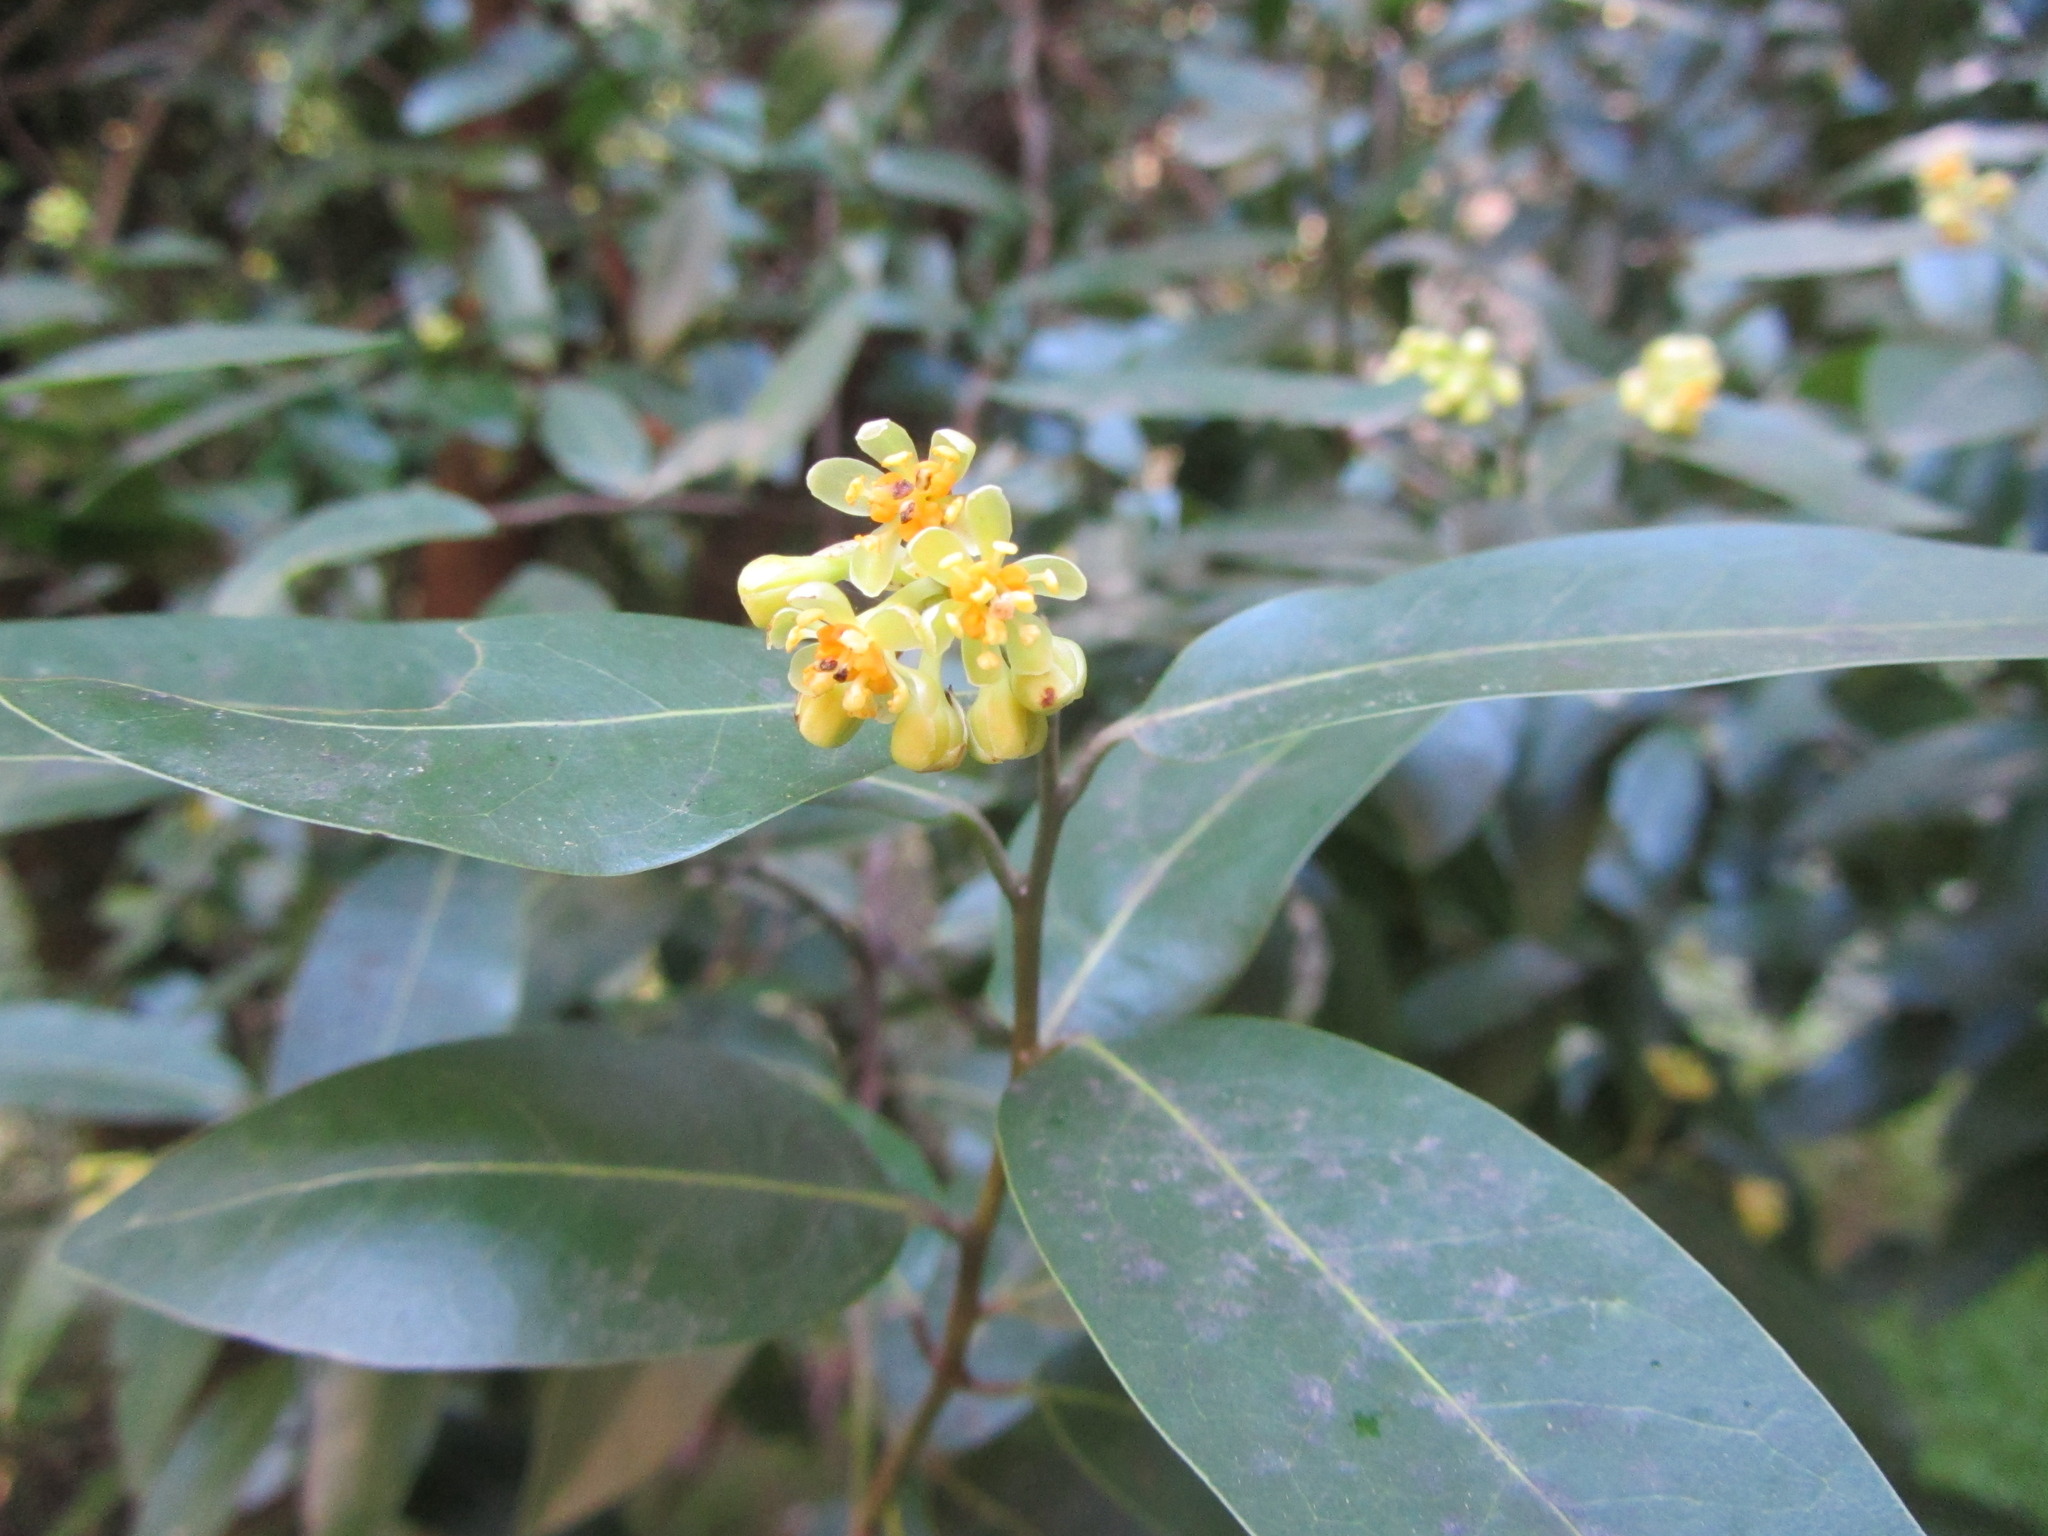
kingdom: Plantae
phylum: Tracheophyta
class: Magnoliopsida
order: Laurales
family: Lauraceae
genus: Umbellularia
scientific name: Umbellularia californica
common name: California bay
